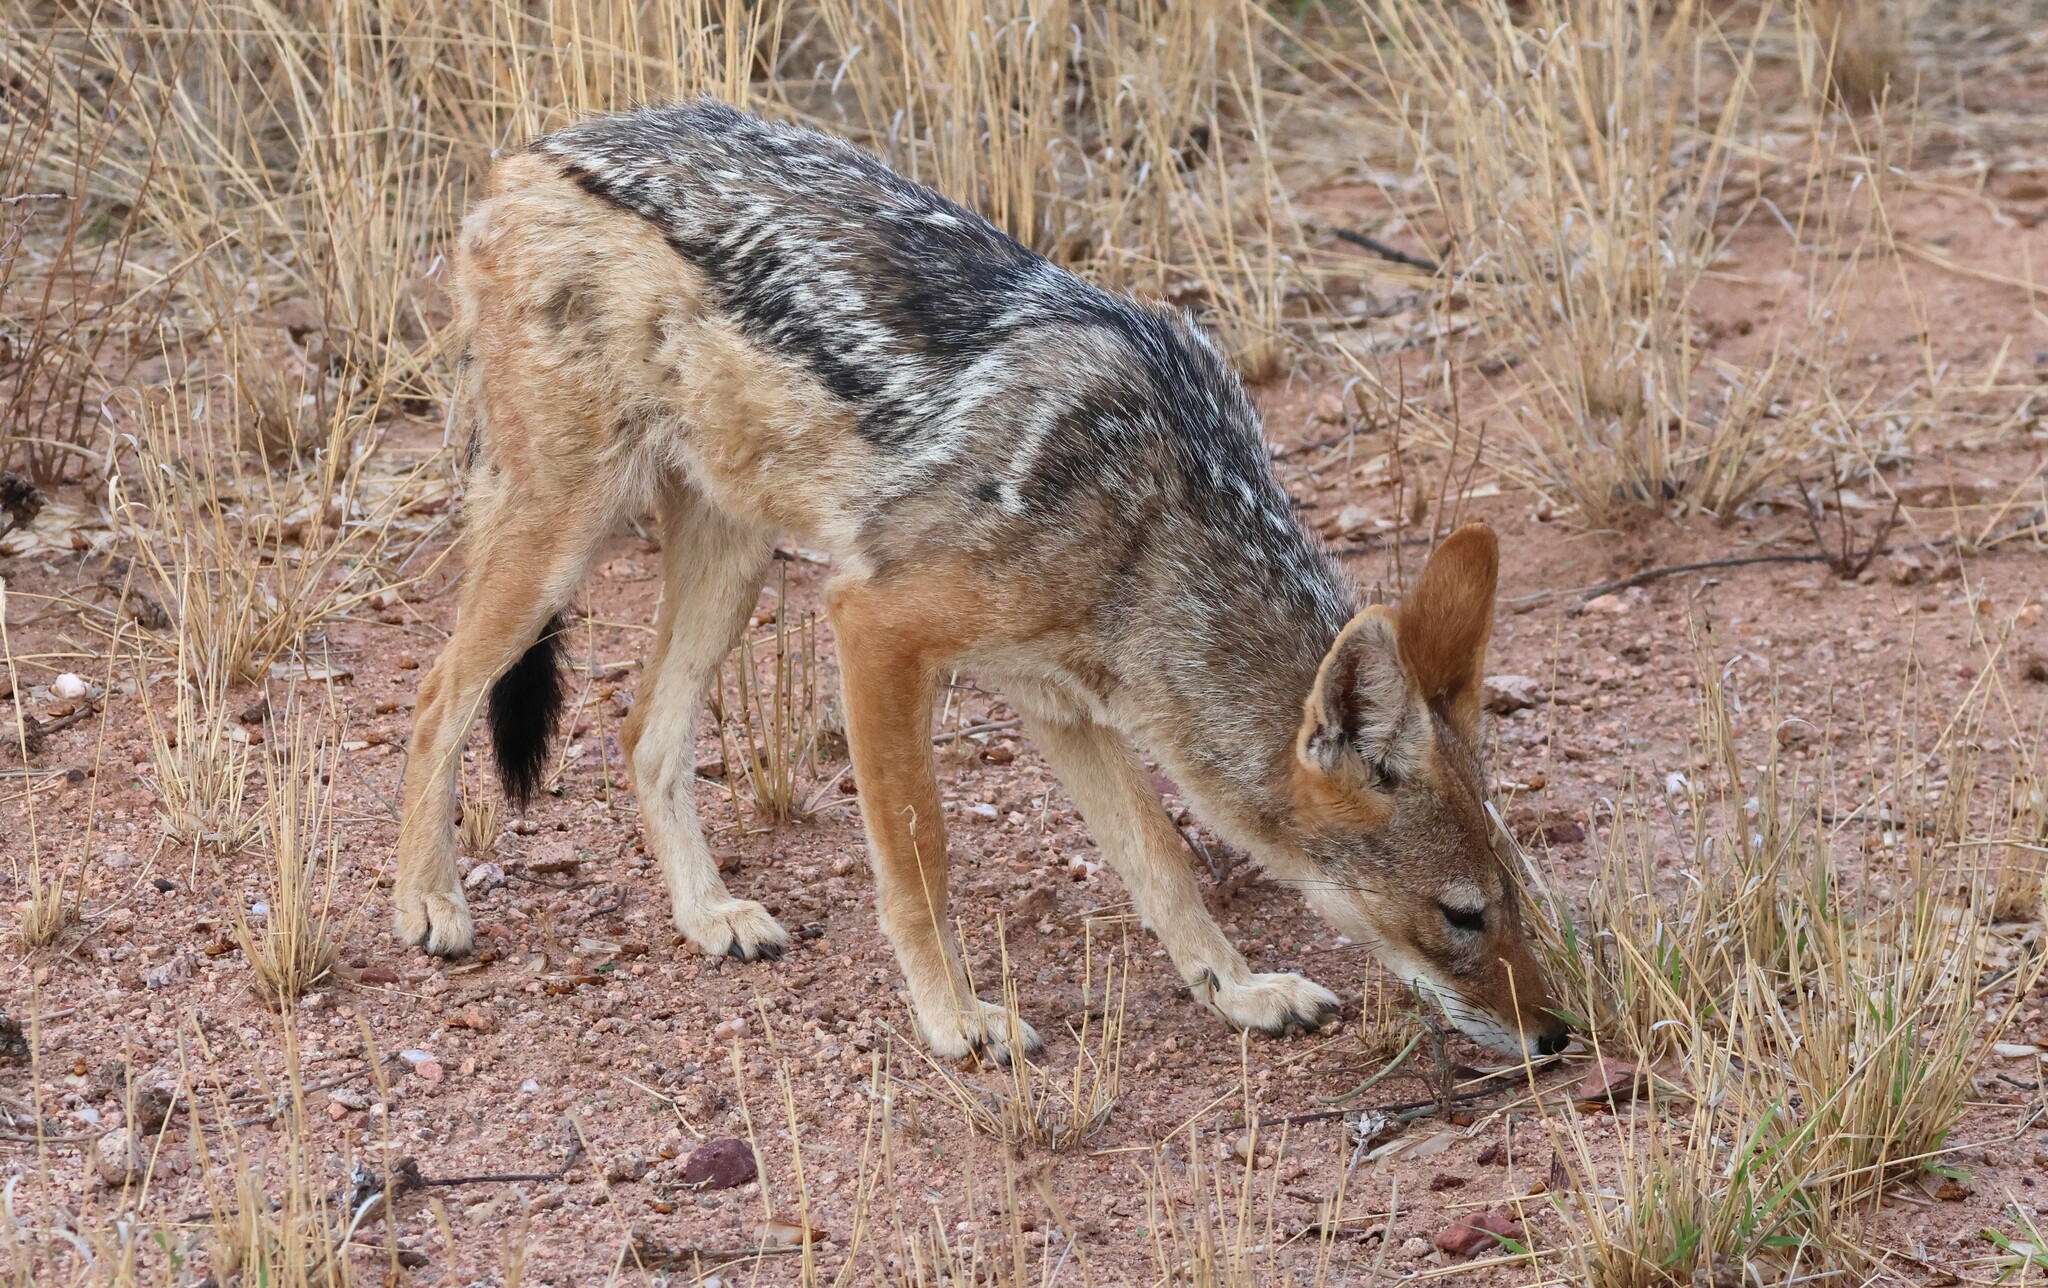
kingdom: Animalia
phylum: Chordata
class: Mammalia
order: Carnivora
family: Canidae
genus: Lupulella
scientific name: Lupulella
